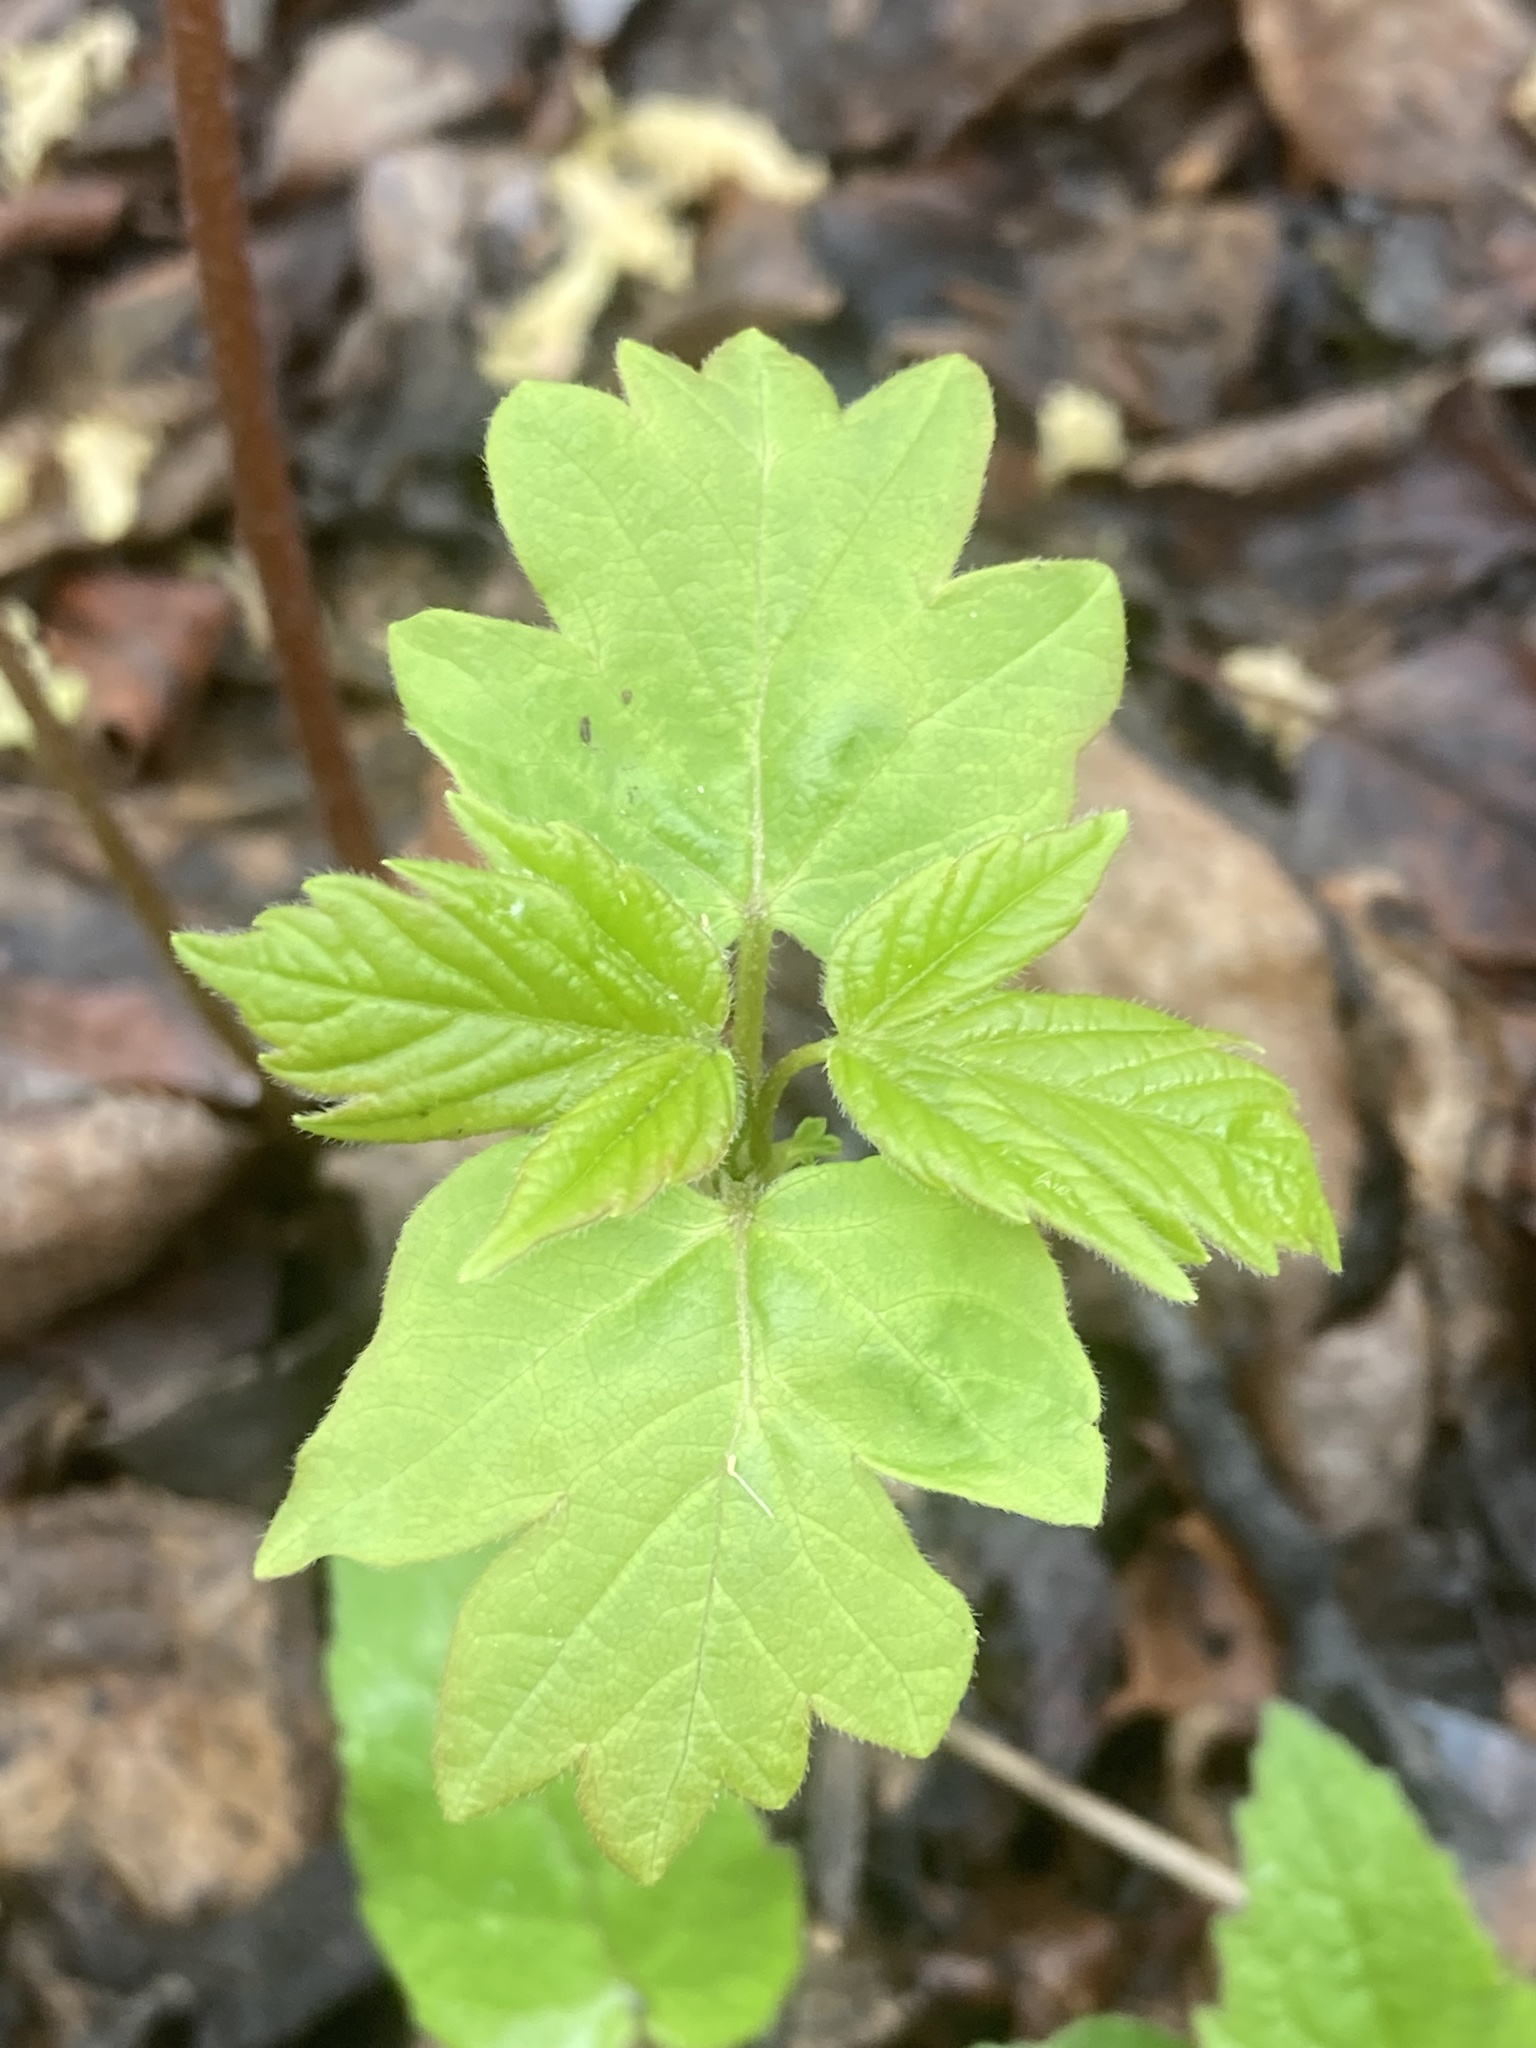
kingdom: Plantae
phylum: Tracheophyta
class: Magnoliopsida
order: Sapindales
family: Sapindaceae
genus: Acer
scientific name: Acer negundo
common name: Ashleaf maple
